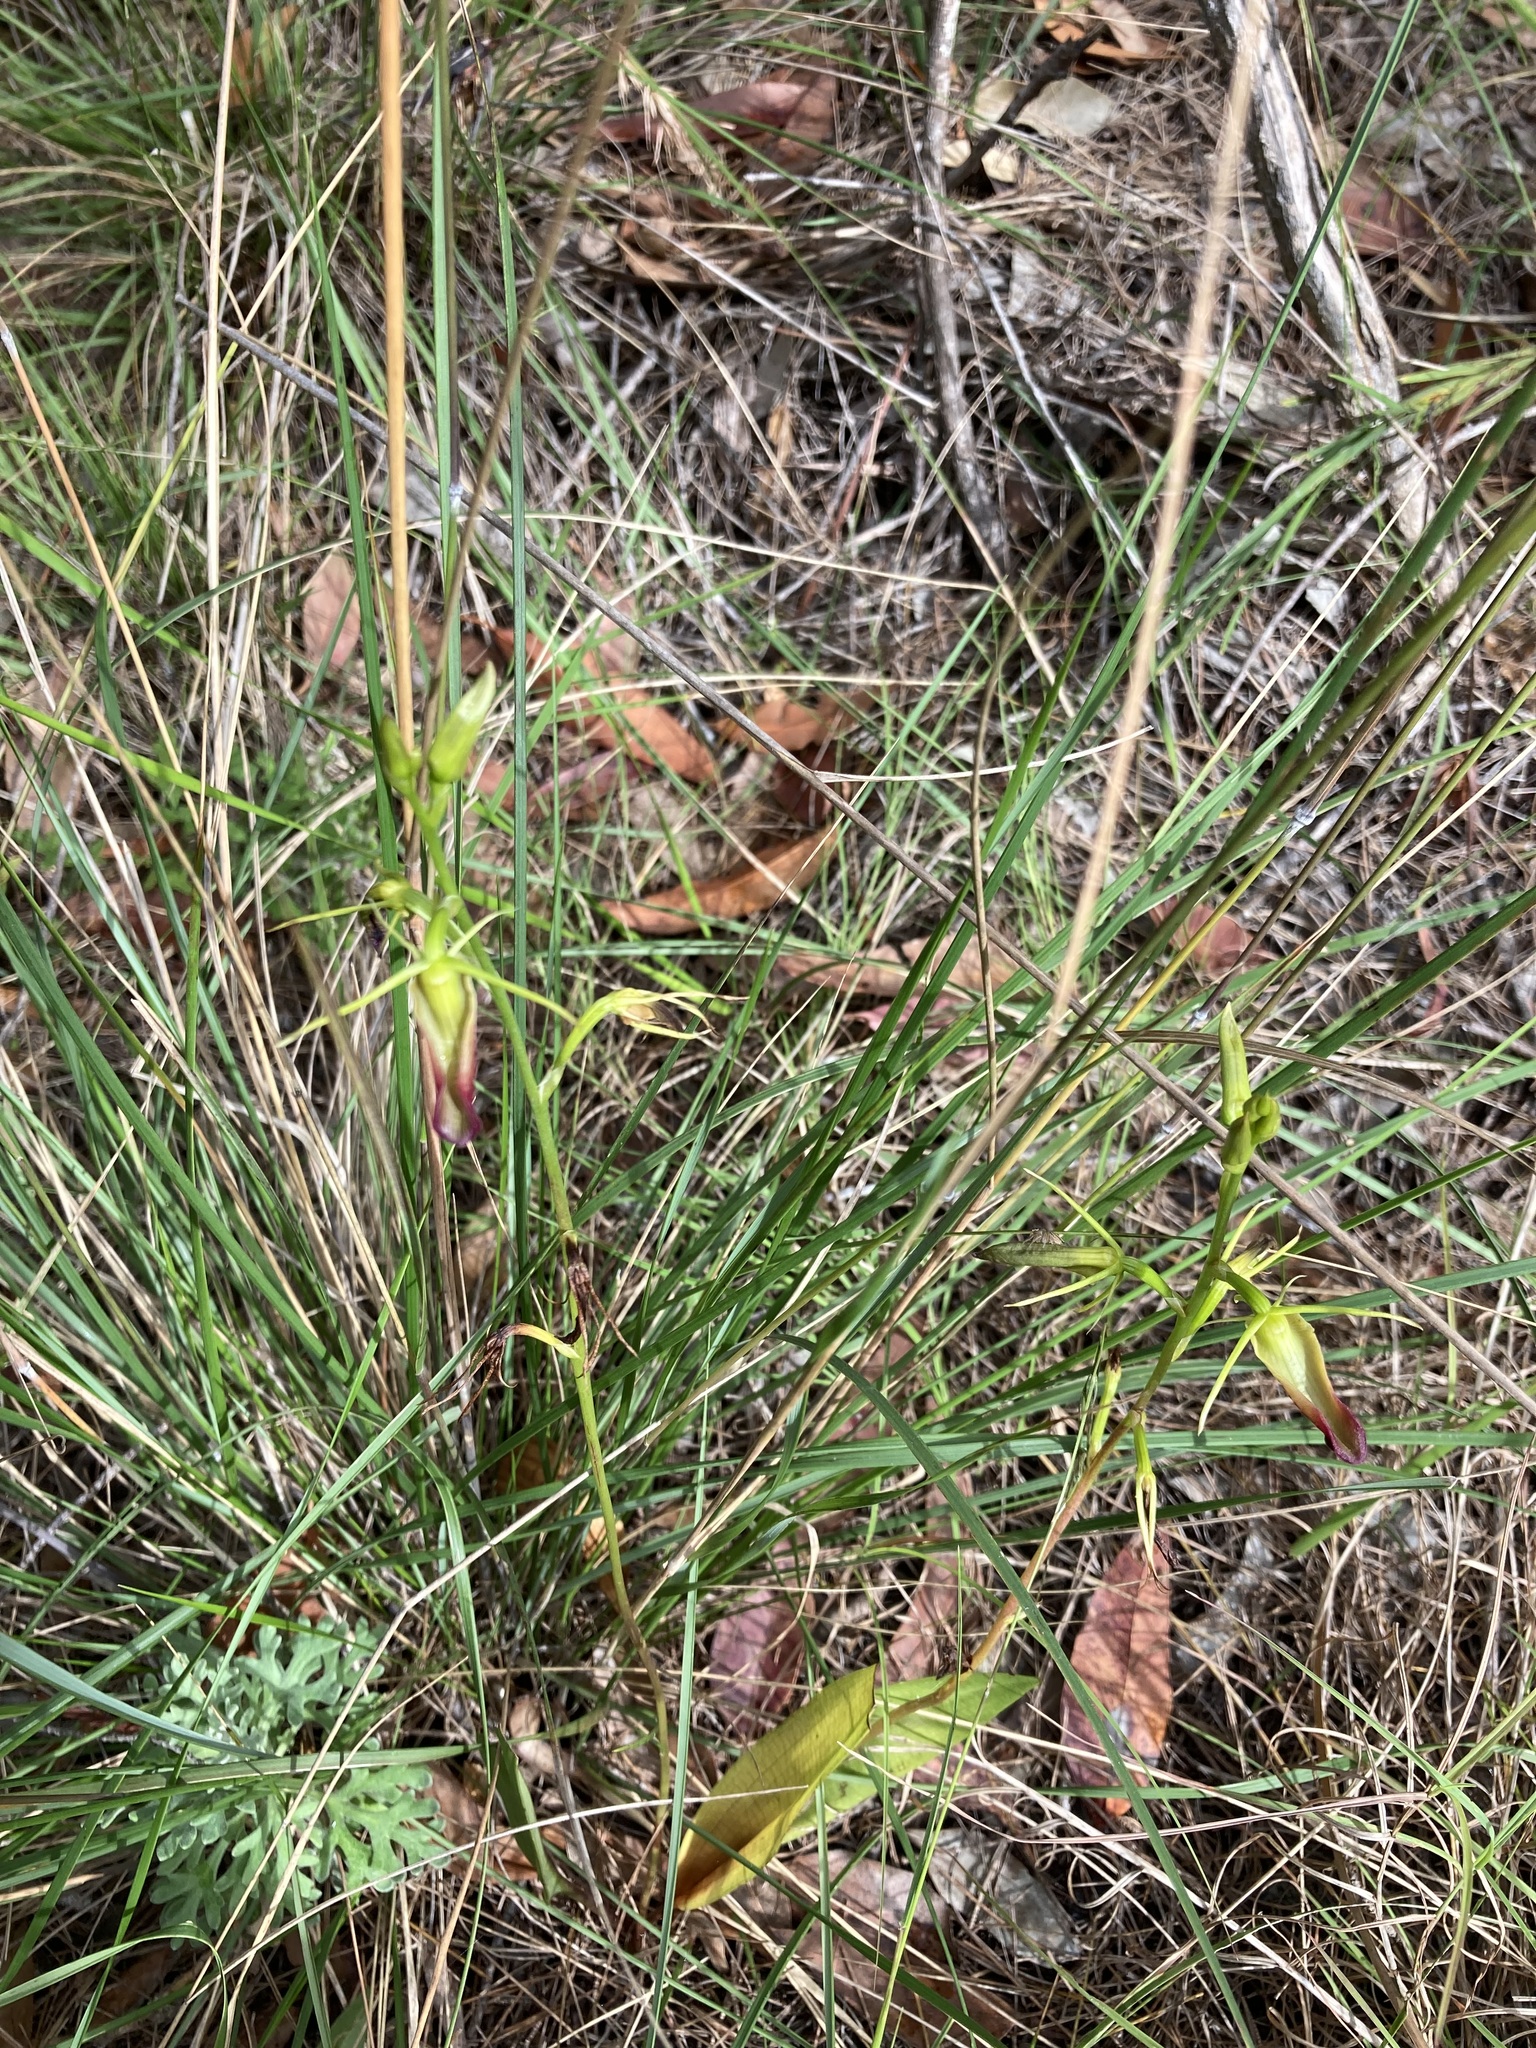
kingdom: Plantae
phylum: Tracheophyta
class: Liliopsida
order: Asparagales
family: Orchidaceae
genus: Cryptostylis
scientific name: Cryptostylis subulata
